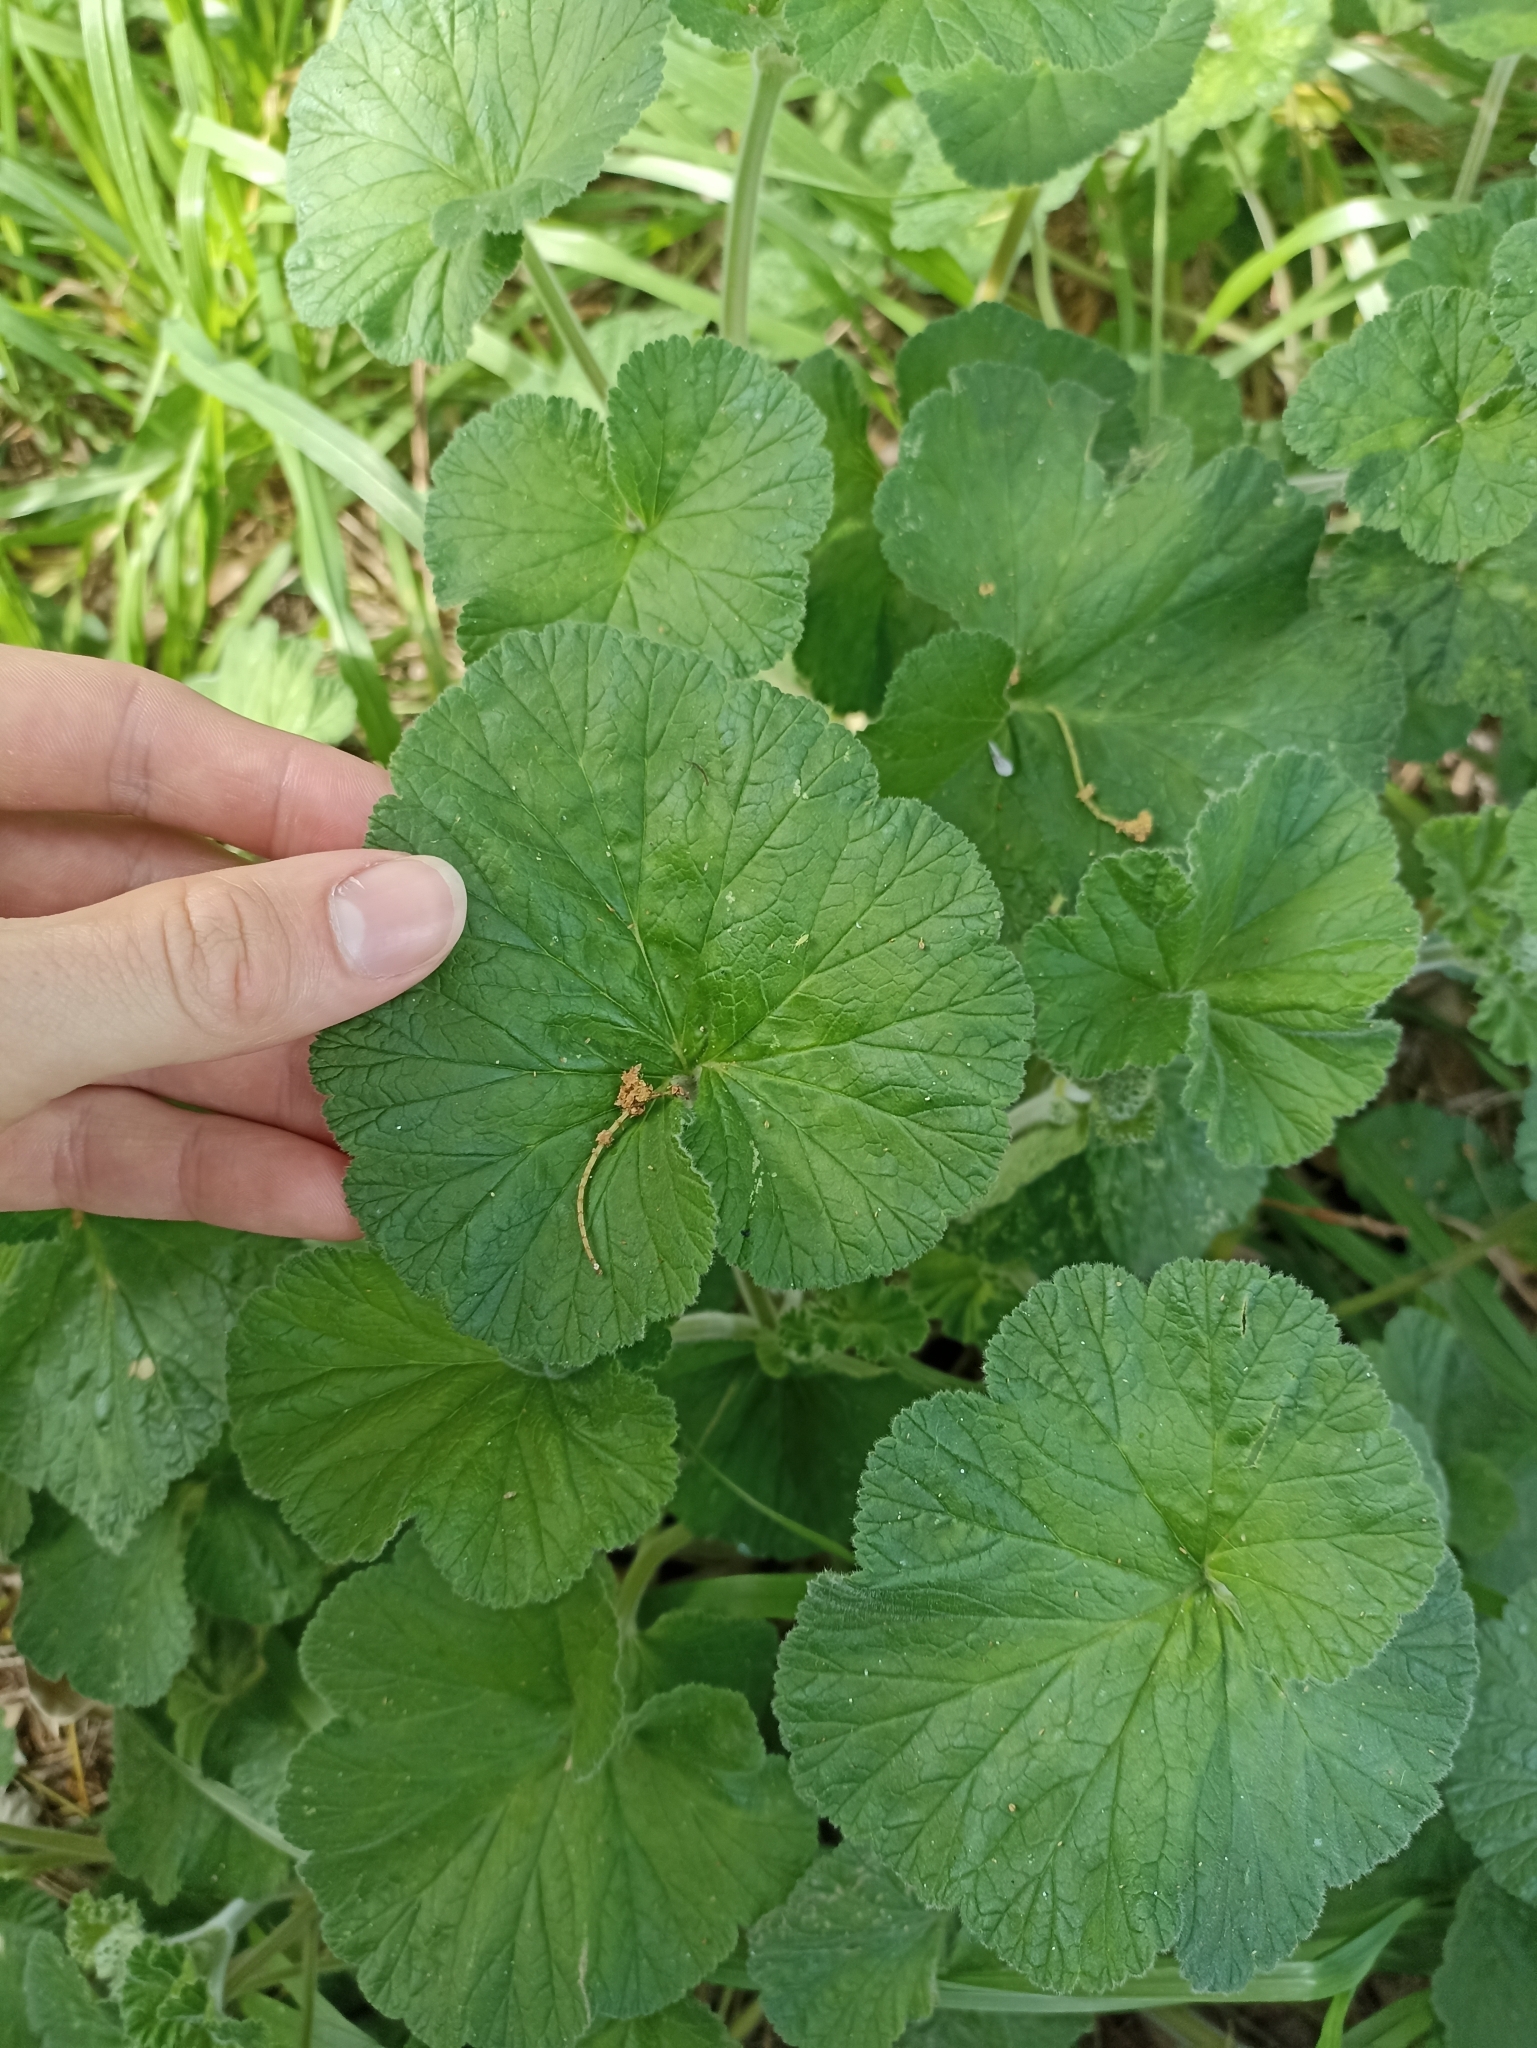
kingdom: Plantae
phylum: Tracheophyta
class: Magnoliopsida
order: Geraniales
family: Geraniaceae
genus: Pelargonium
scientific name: Pelargonium australe
